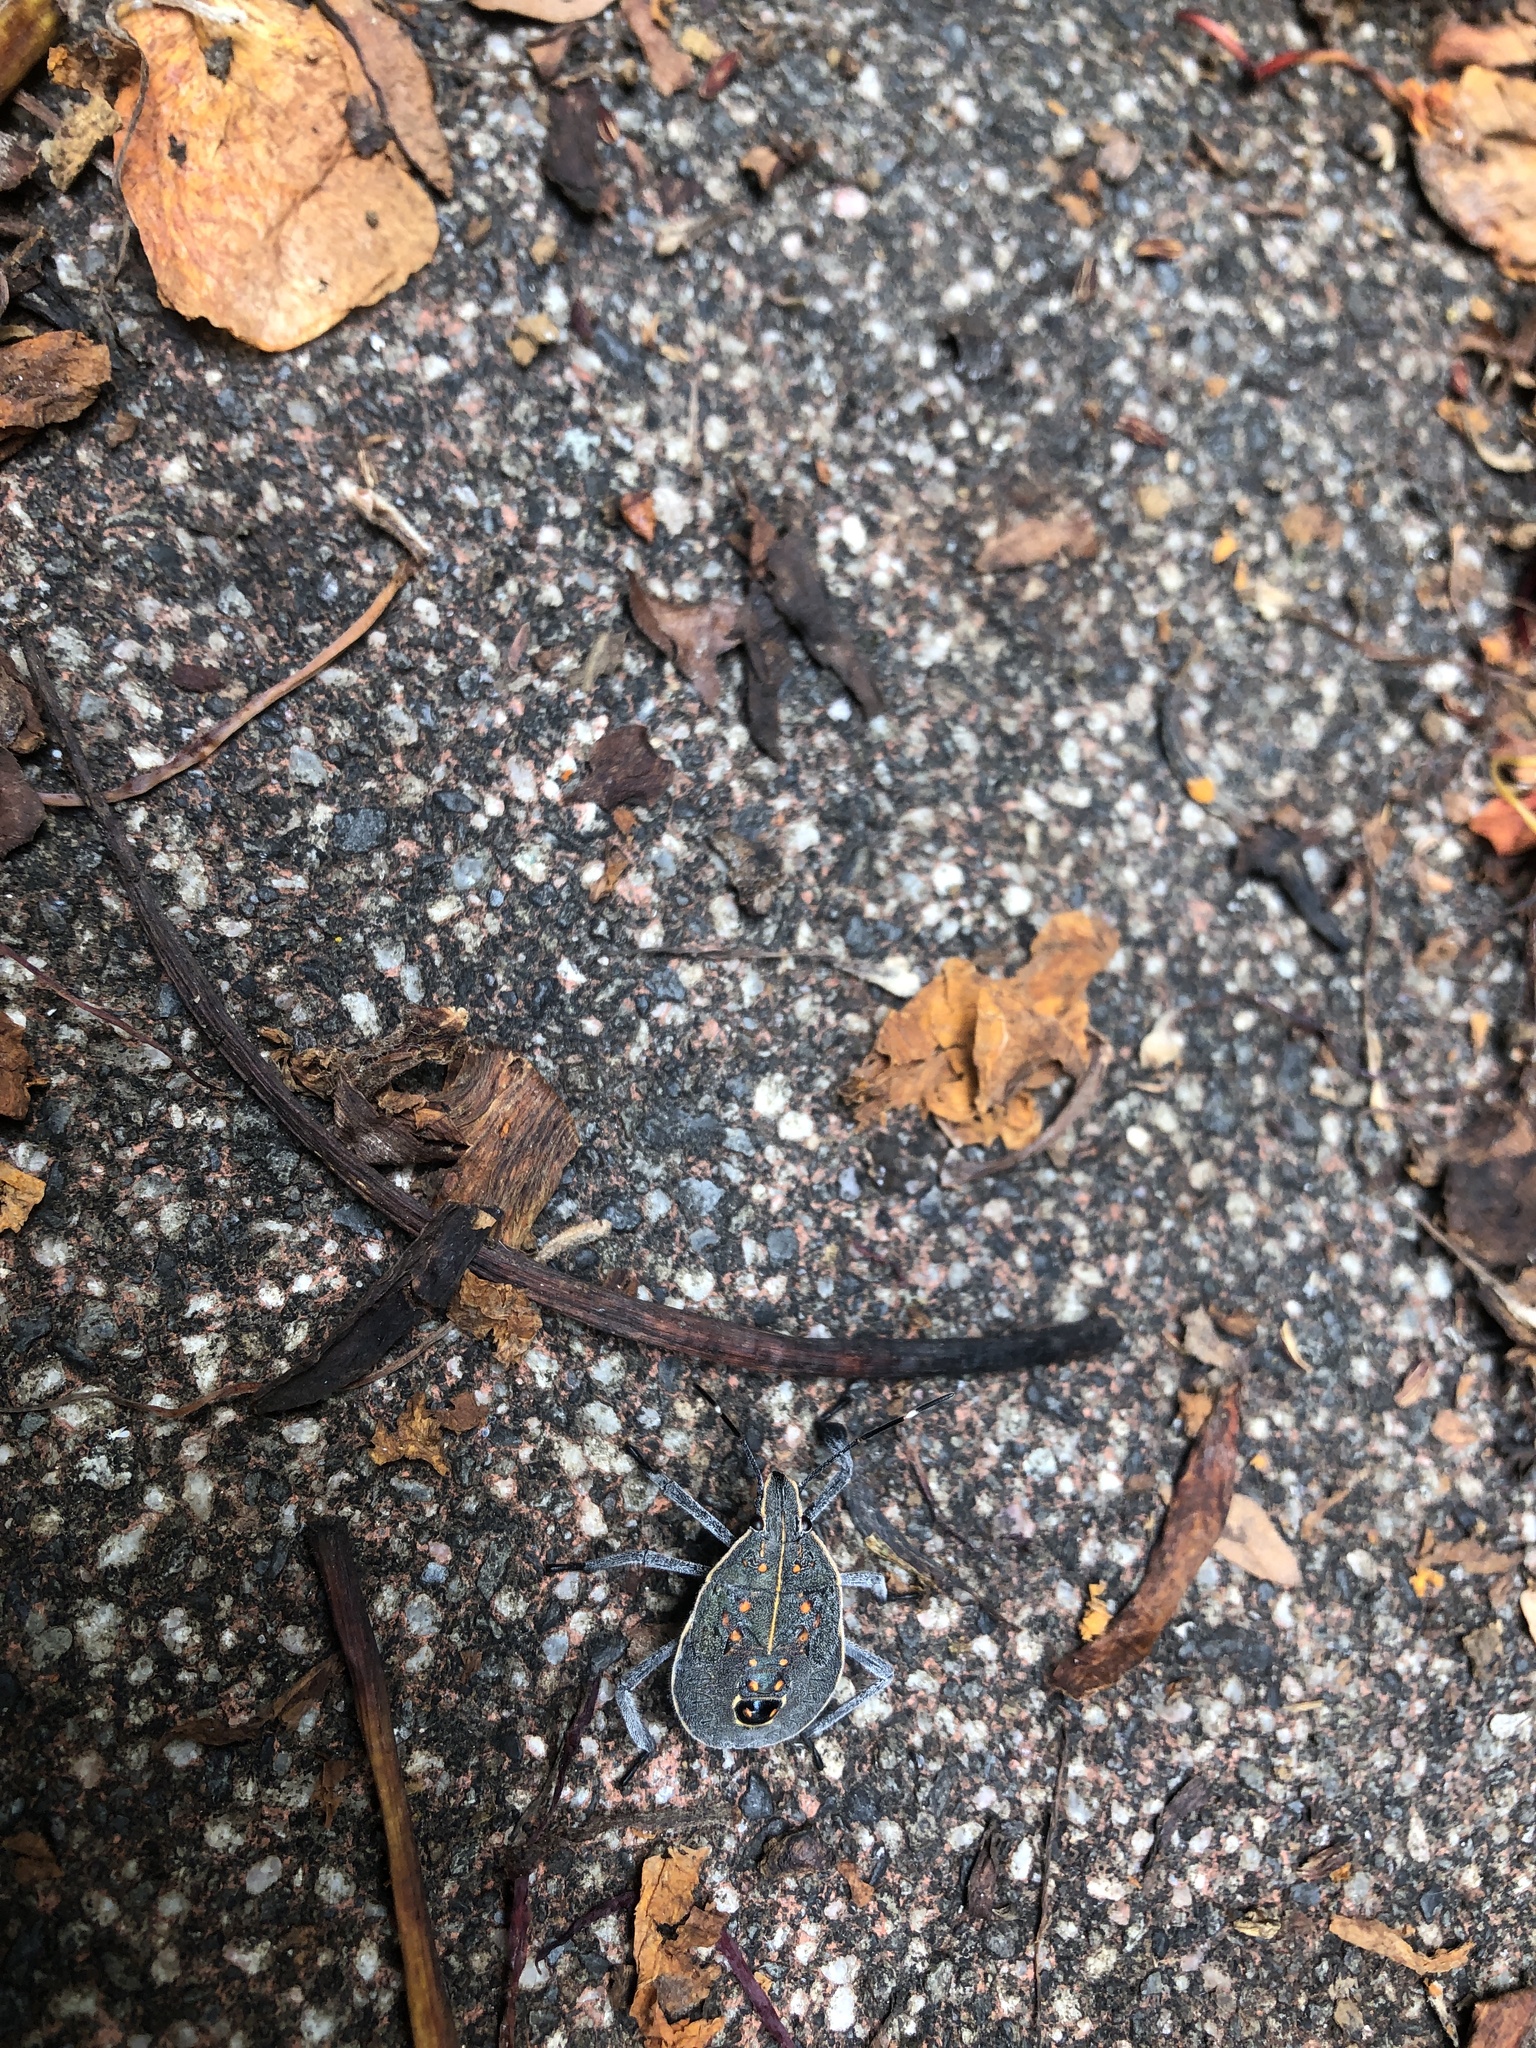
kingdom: Animalia
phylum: Arthropoda
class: Insecta
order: Hemiptera
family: Pentatomidae
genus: Erthesina
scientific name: Erthesina fullo
